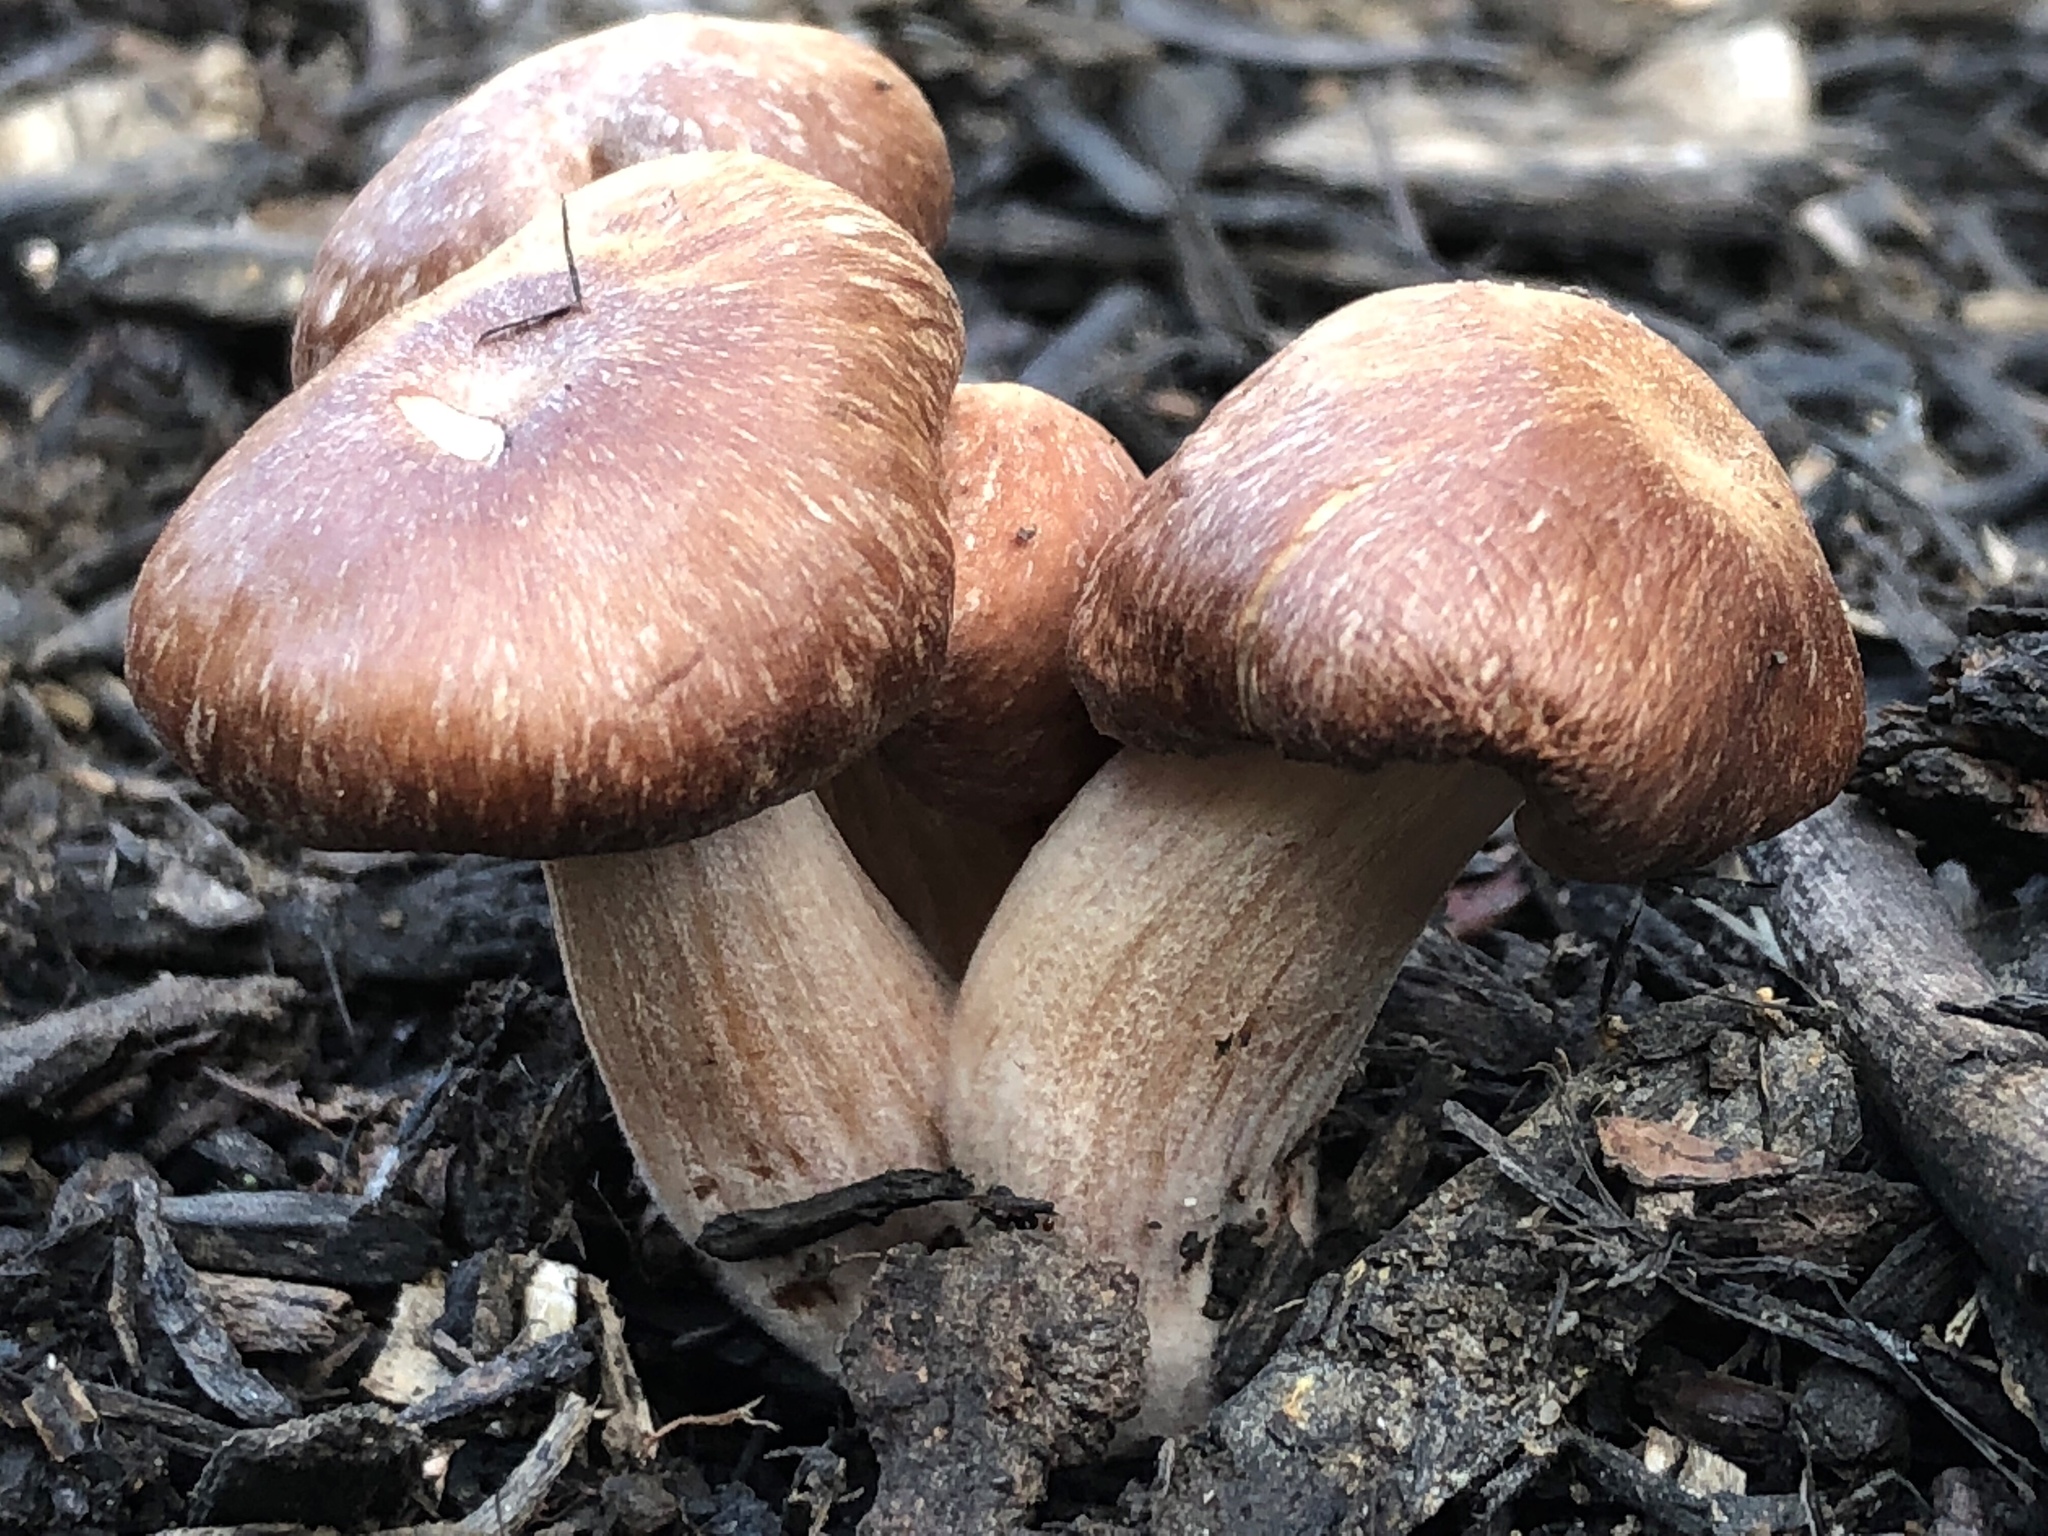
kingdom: Fungi
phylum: Basidiomycota
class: Agaricomycetes
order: Agaricales
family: Strophariaceae
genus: Stropharia
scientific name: Stropharia rugosoannulata
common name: Wine roundhead
